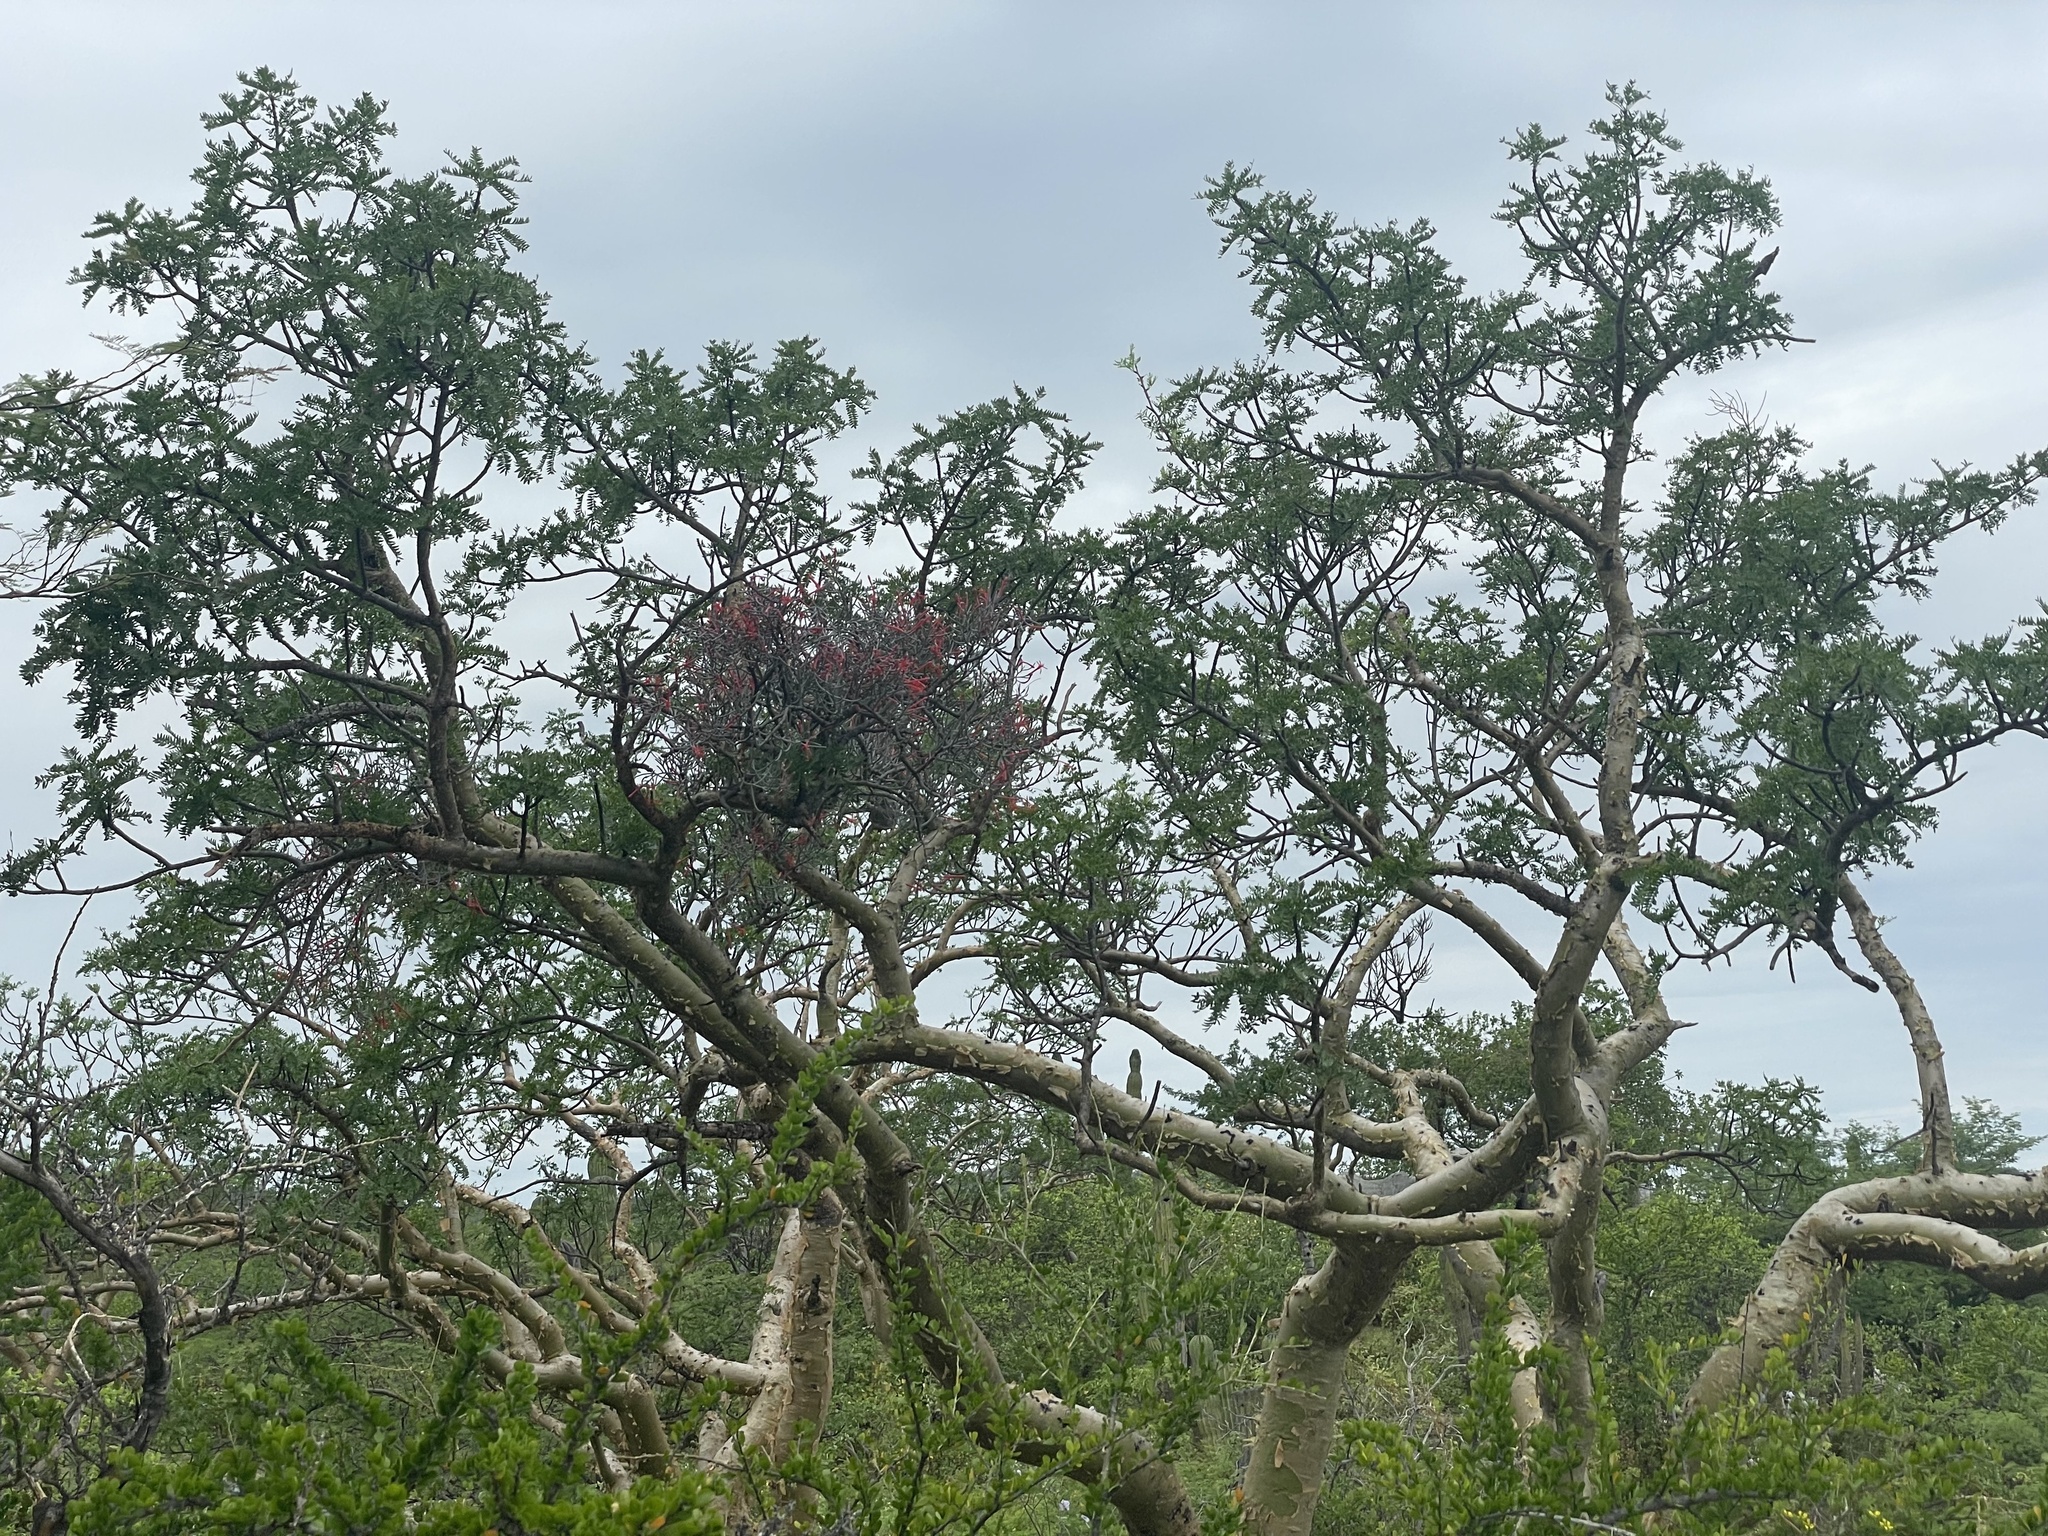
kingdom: Plantae
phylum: Tracheophyta
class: Magnoliopsida
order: Santalales
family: Loranthaceae
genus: Psittacanthus
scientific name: Psittacanthus sonorae
